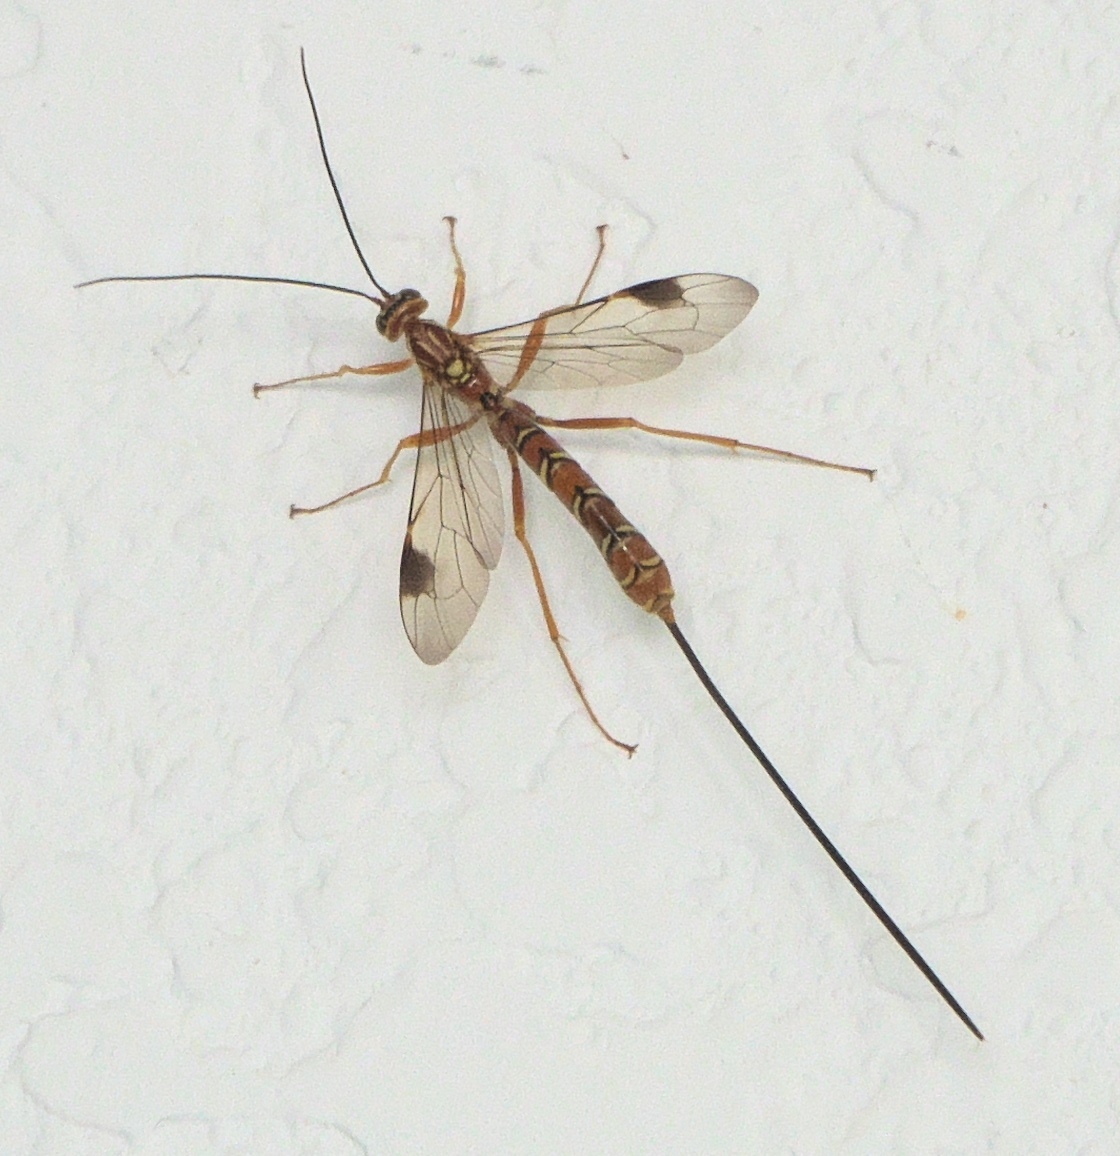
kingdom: Animalia
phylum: Arthropoda
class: Insecta
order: Hymenoptera
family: Ichneumonidae
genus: Megarhyssa
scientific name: Megarhyssa greenei
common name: Greene's giant ichneumonid wasp
